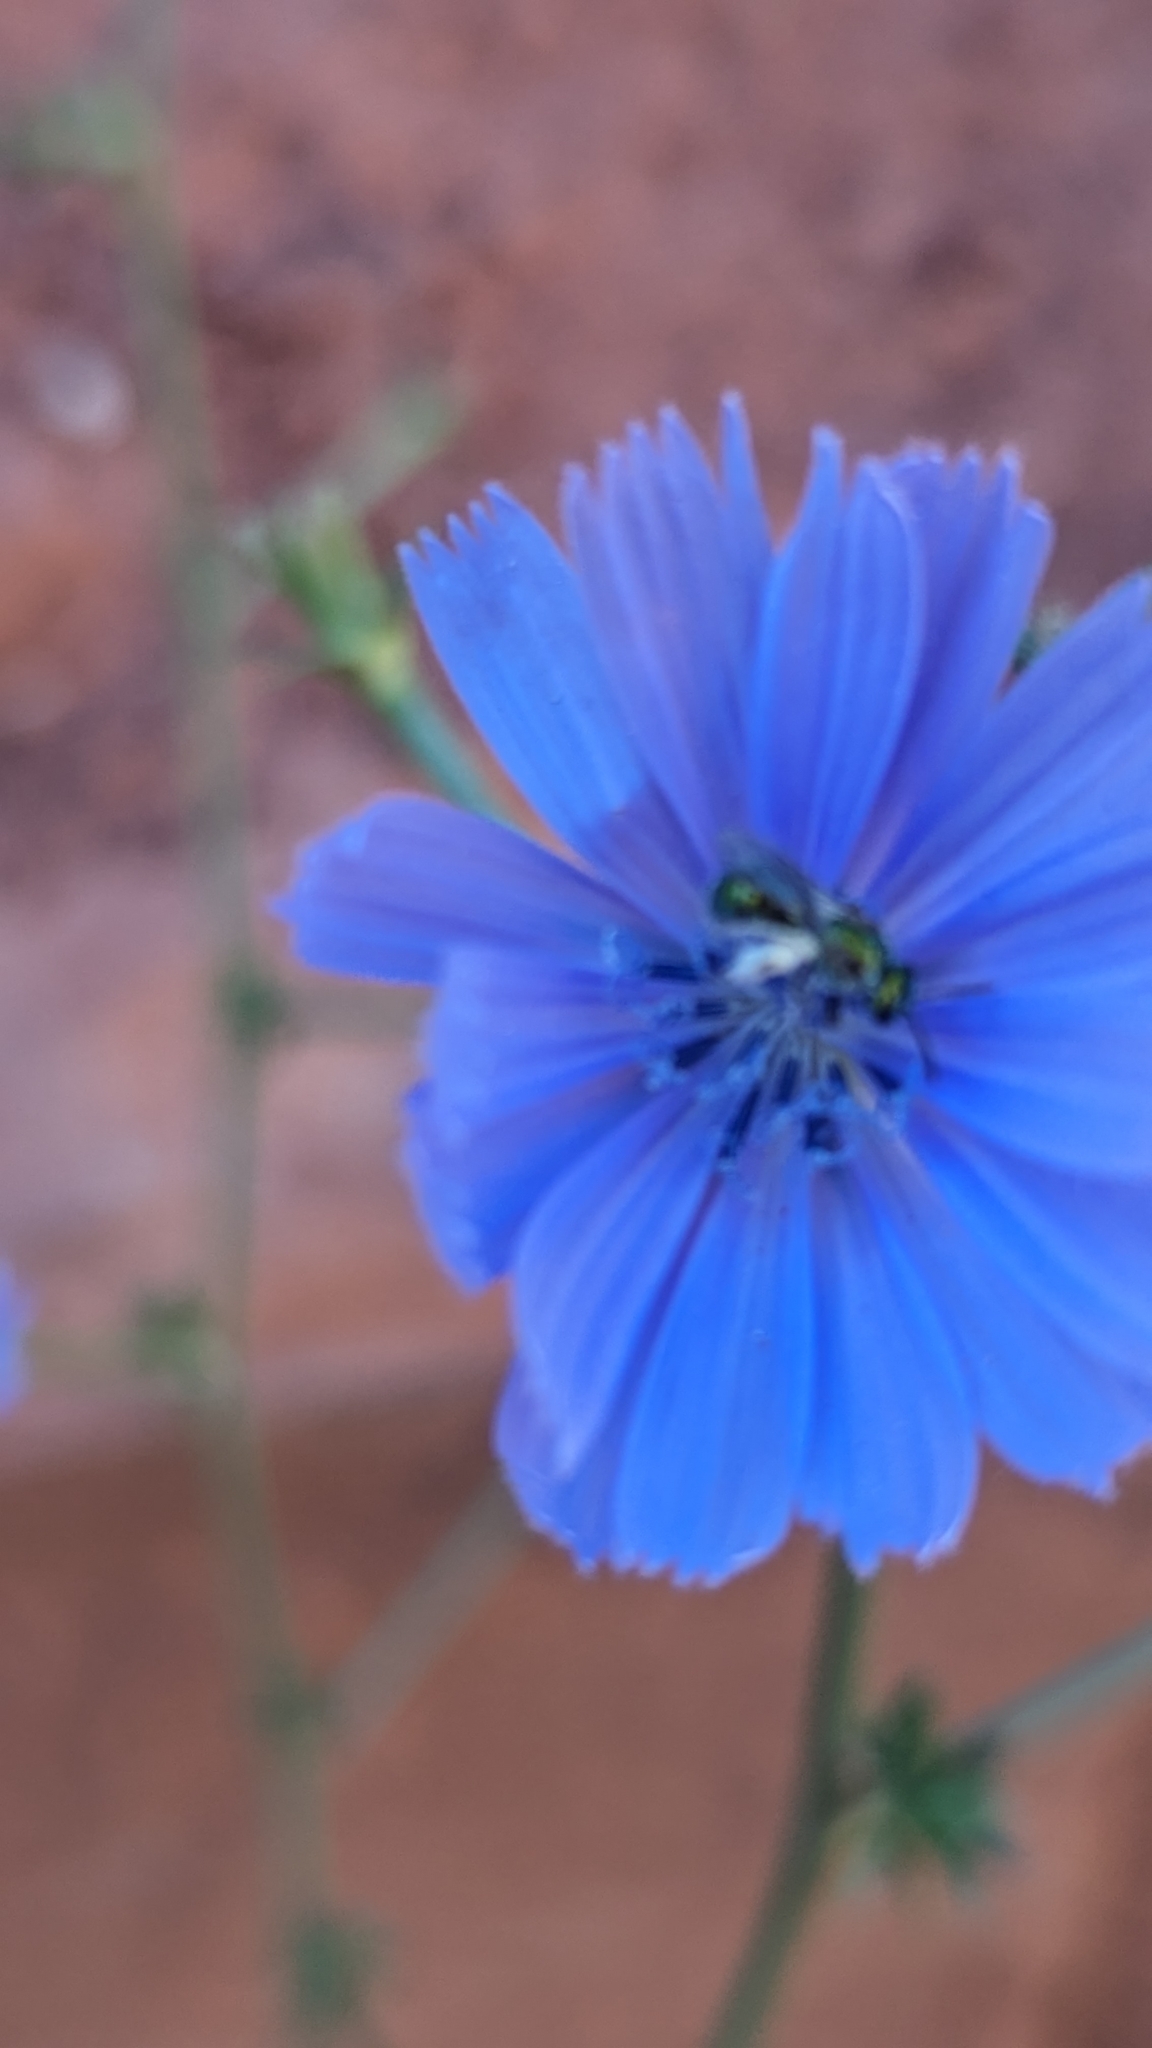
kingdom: Plantae
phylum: Tracheophyta
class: Magnoliopsida
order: Asterales
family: Asteraceae
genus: Cichorium
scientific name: Cichorium intybus
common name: Chicory
